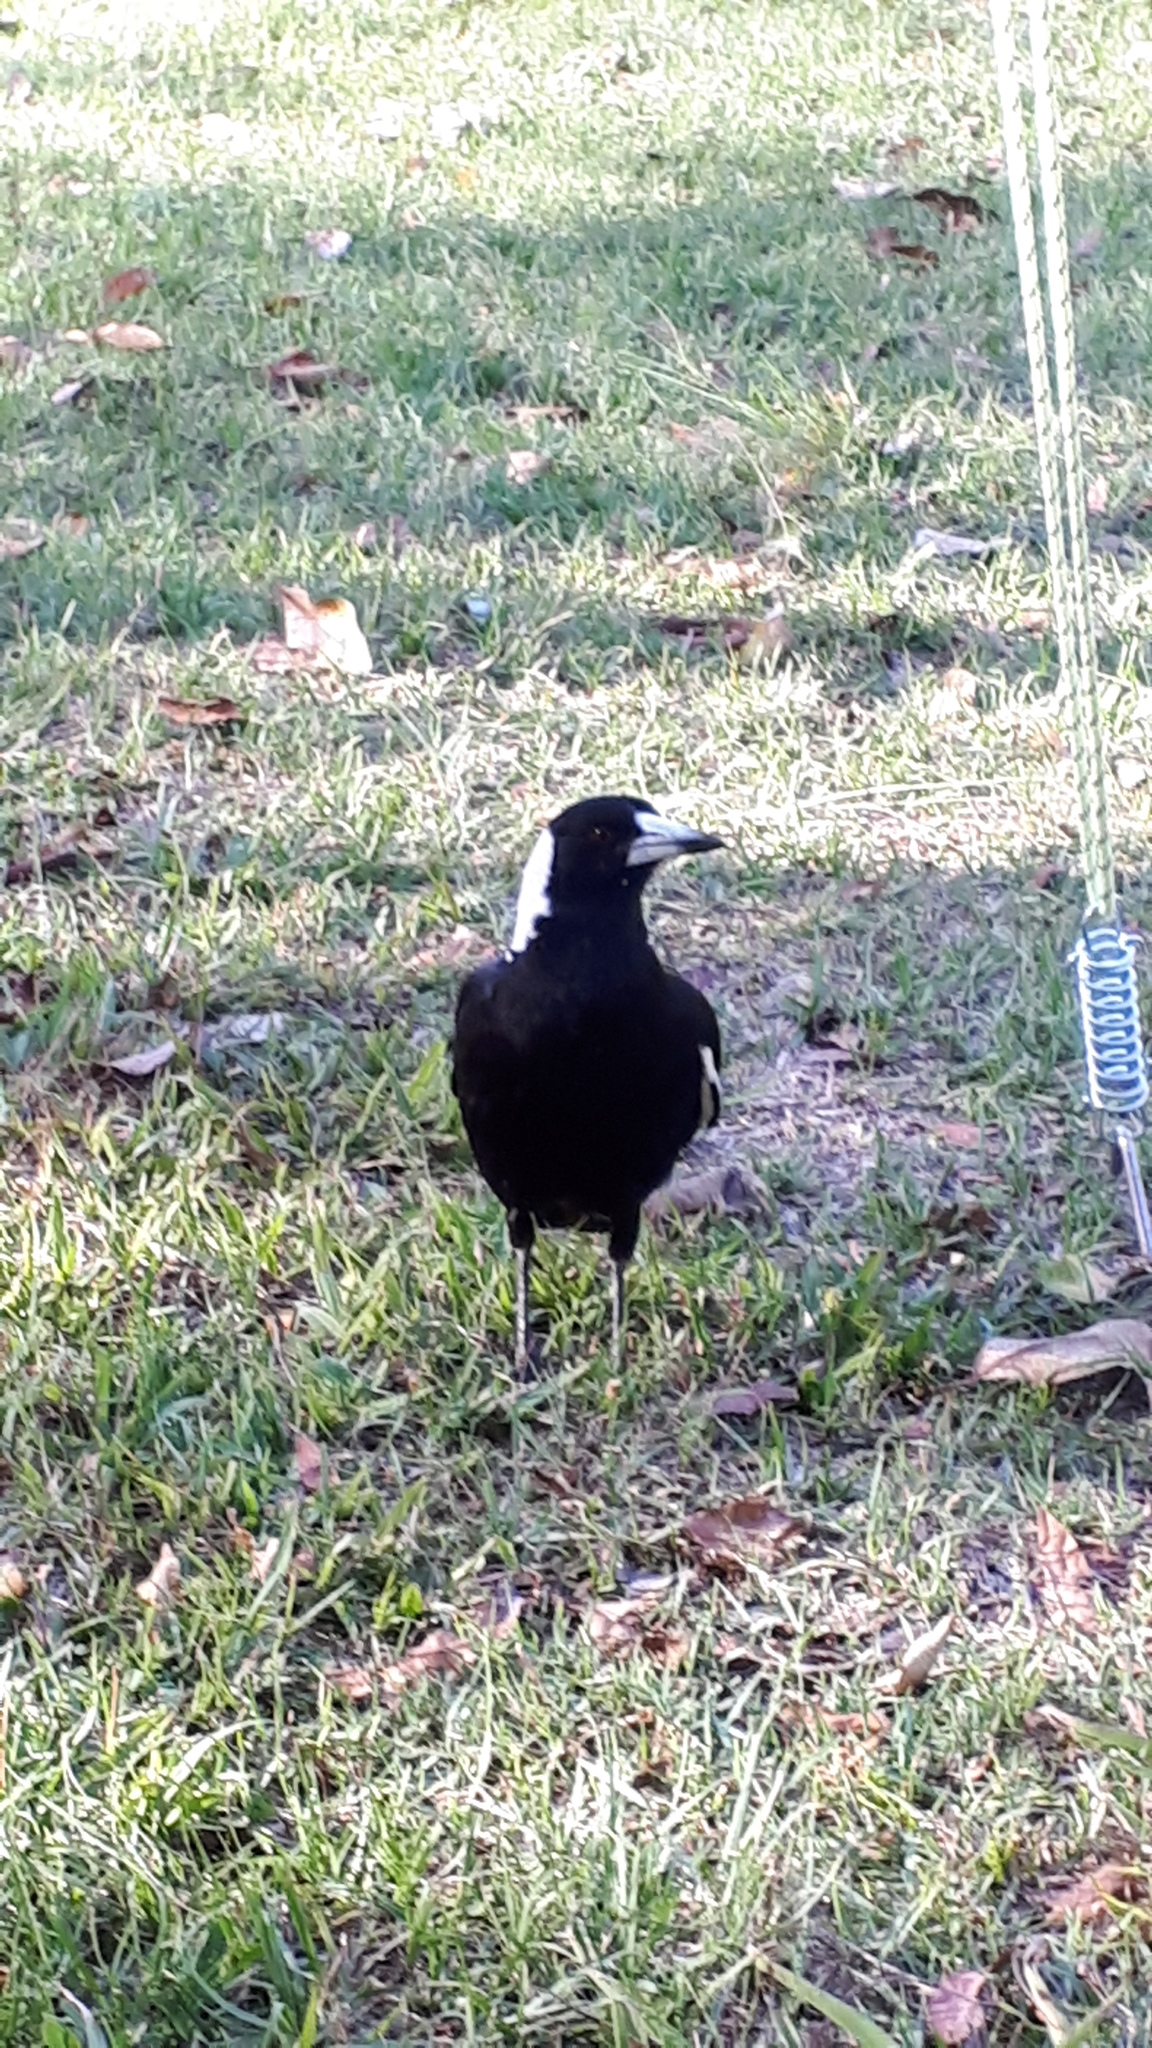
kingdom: Animalia
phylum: Chordata
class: Aves
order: Passeriformes
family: Cracticidae
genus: Gymnorhina
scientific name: Gymnorhina tibicen
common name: Australian magpie
